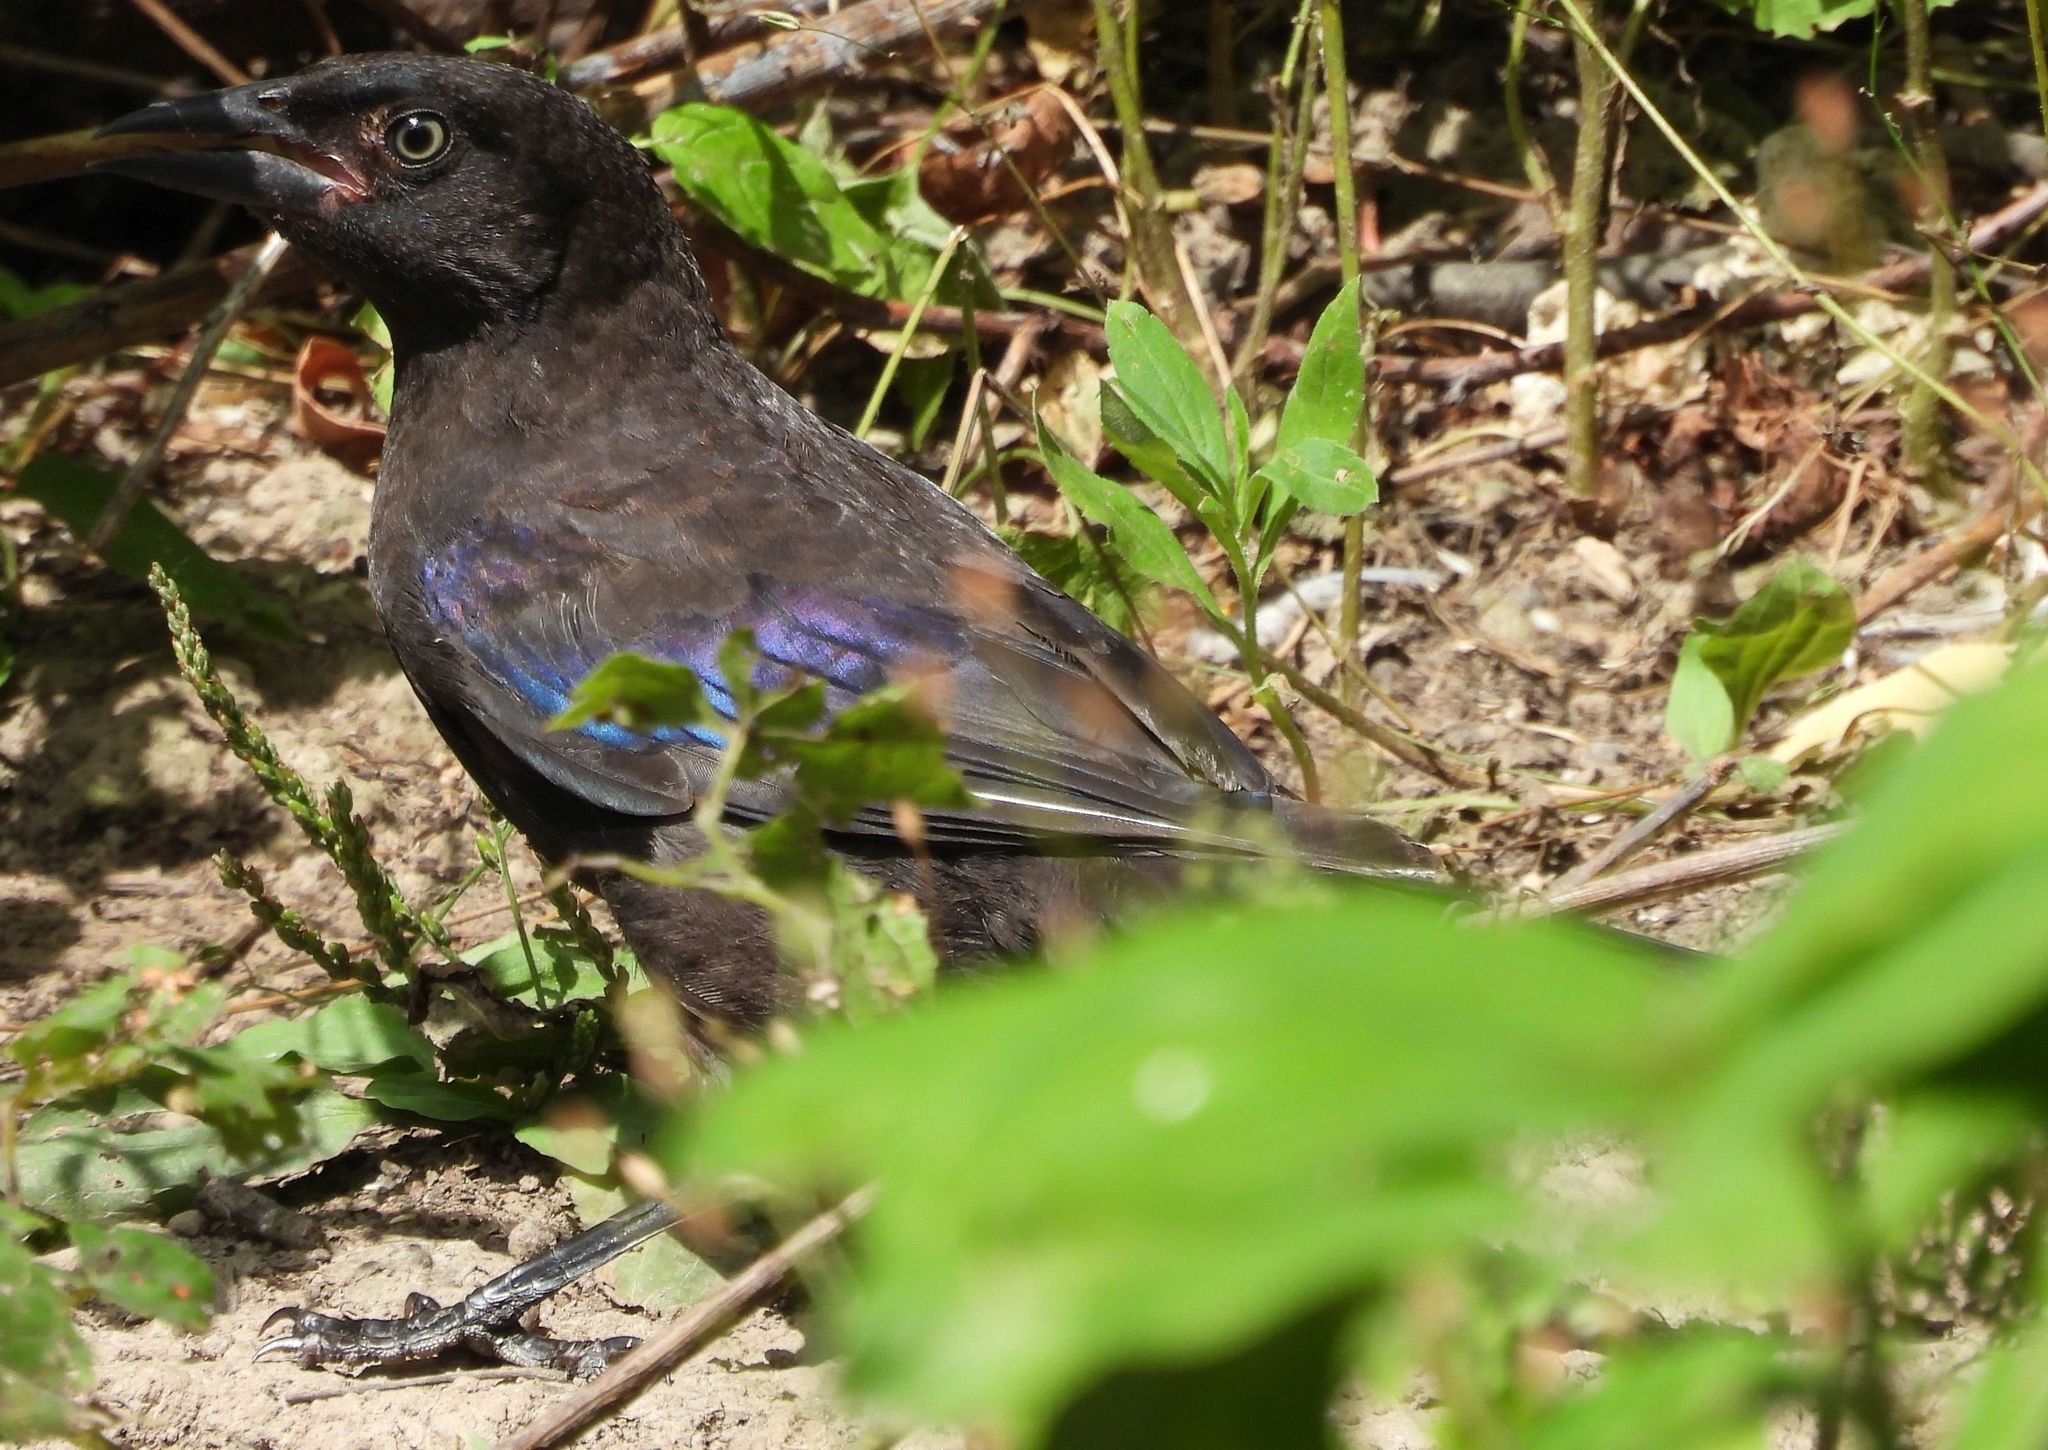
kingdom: Animalia
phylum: Chordata
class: Aves
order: Passeriformes
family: Icteridae
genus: Quiscalus
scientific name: Quiscalus quiscula
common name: Common grackle
